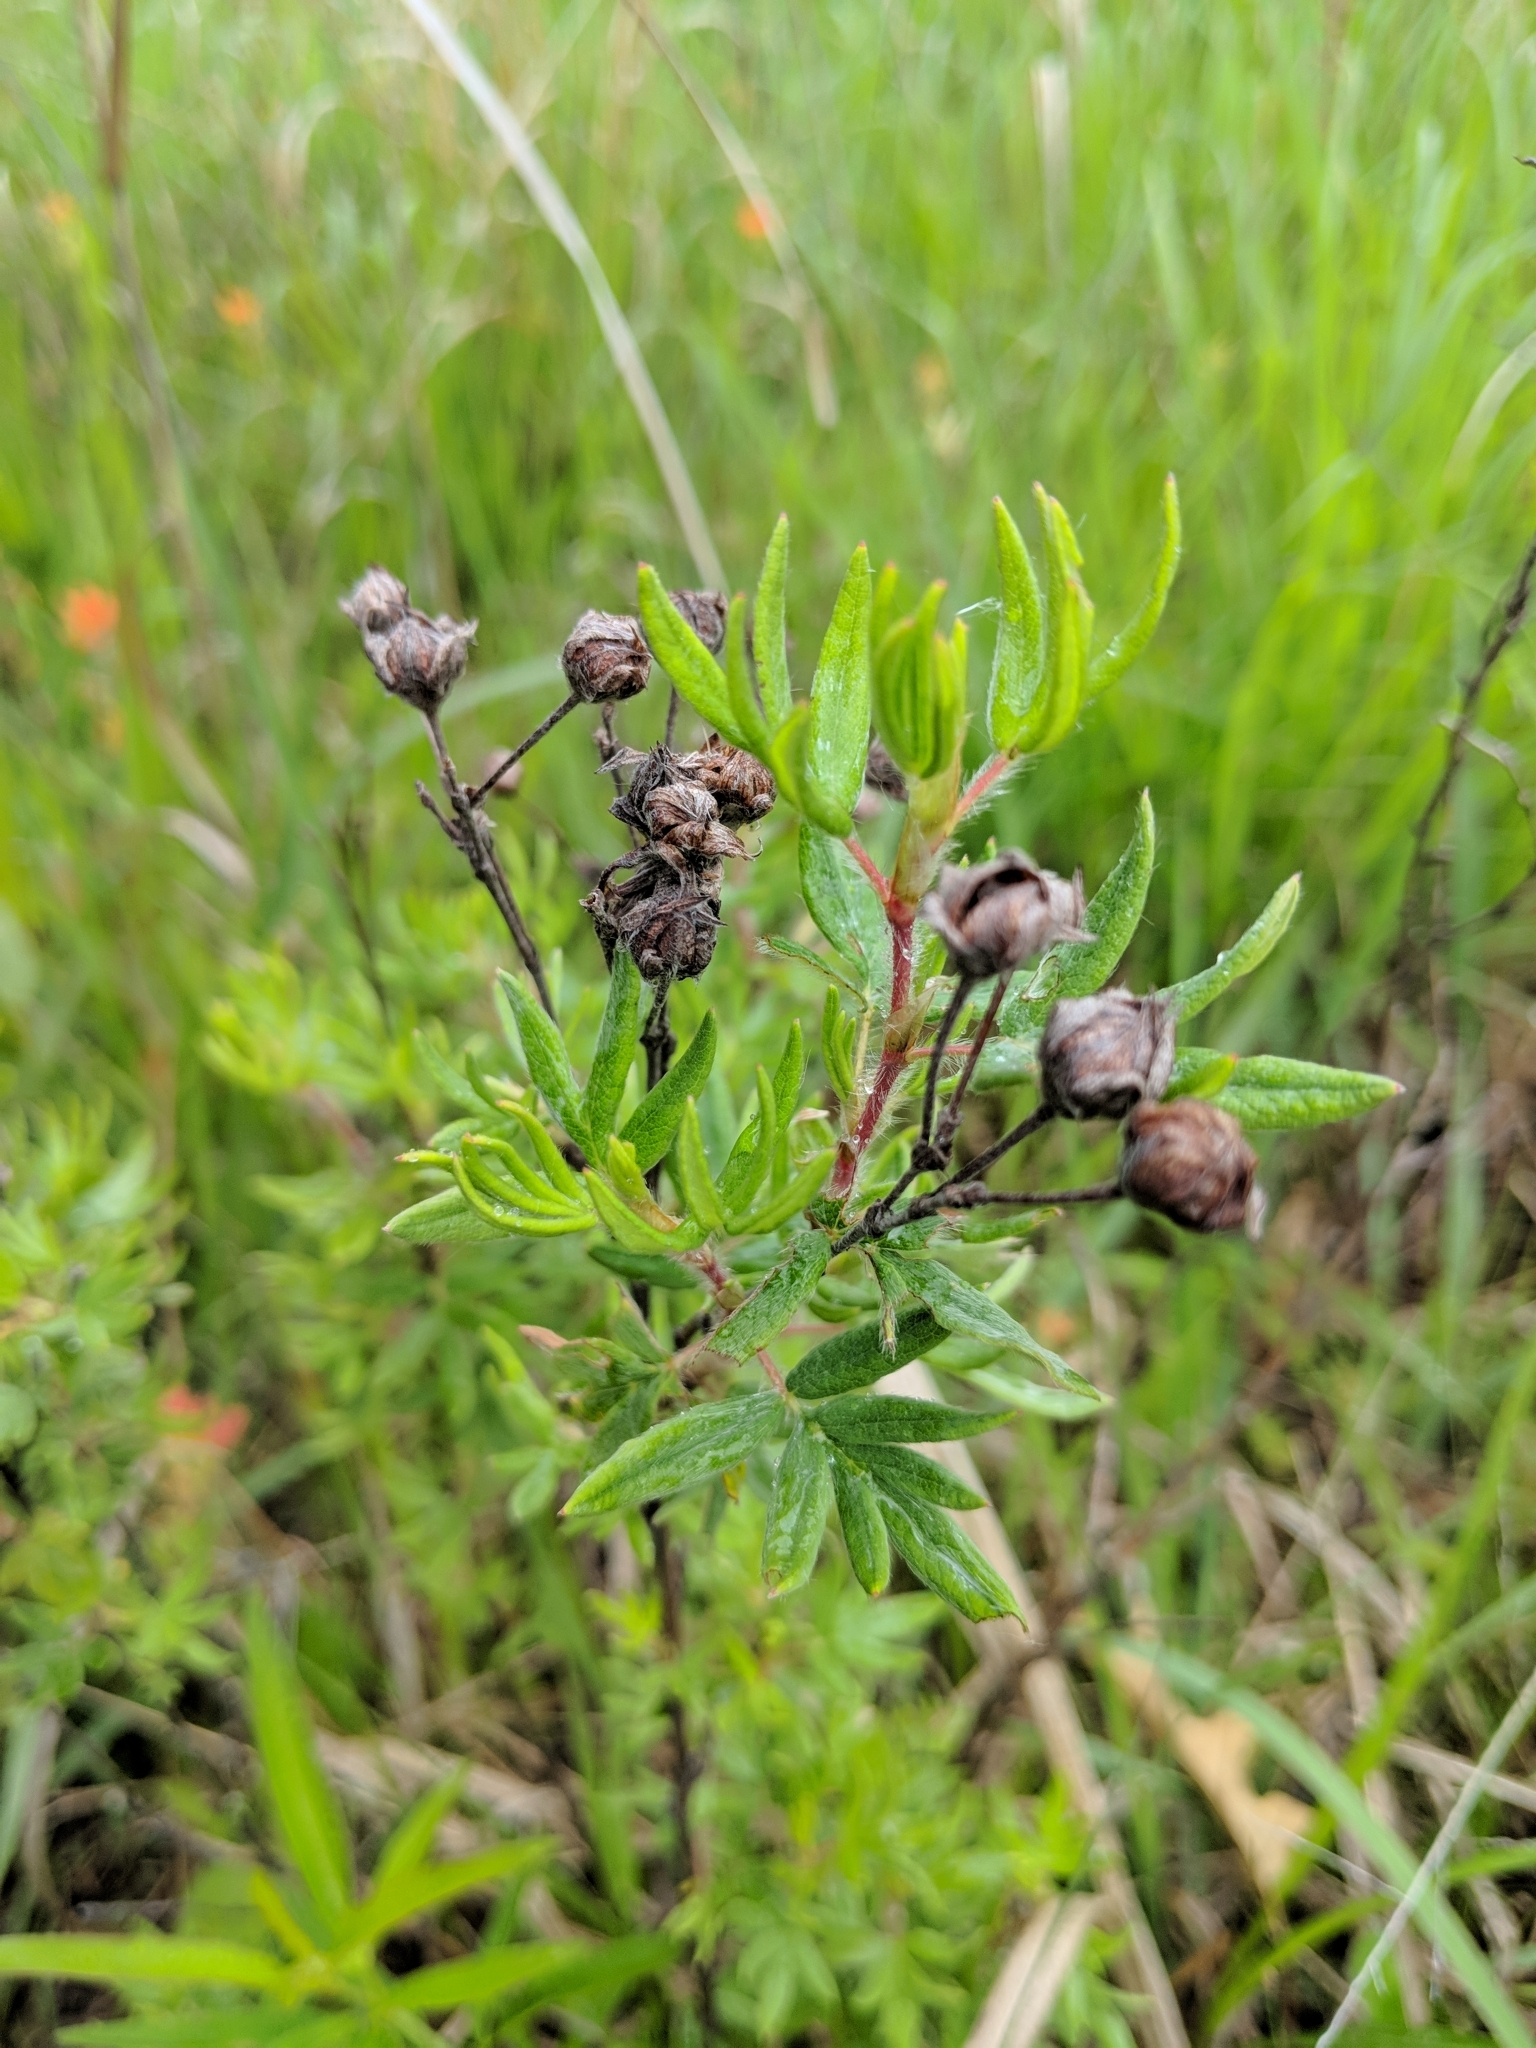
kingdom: Plantae
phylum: Tracheophyta
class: Magnoliopsida
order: Rosales
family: Rosaceae
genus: Dasiphora
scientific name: Dasiphora fruticosa
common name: Shrubby cinquefoil
